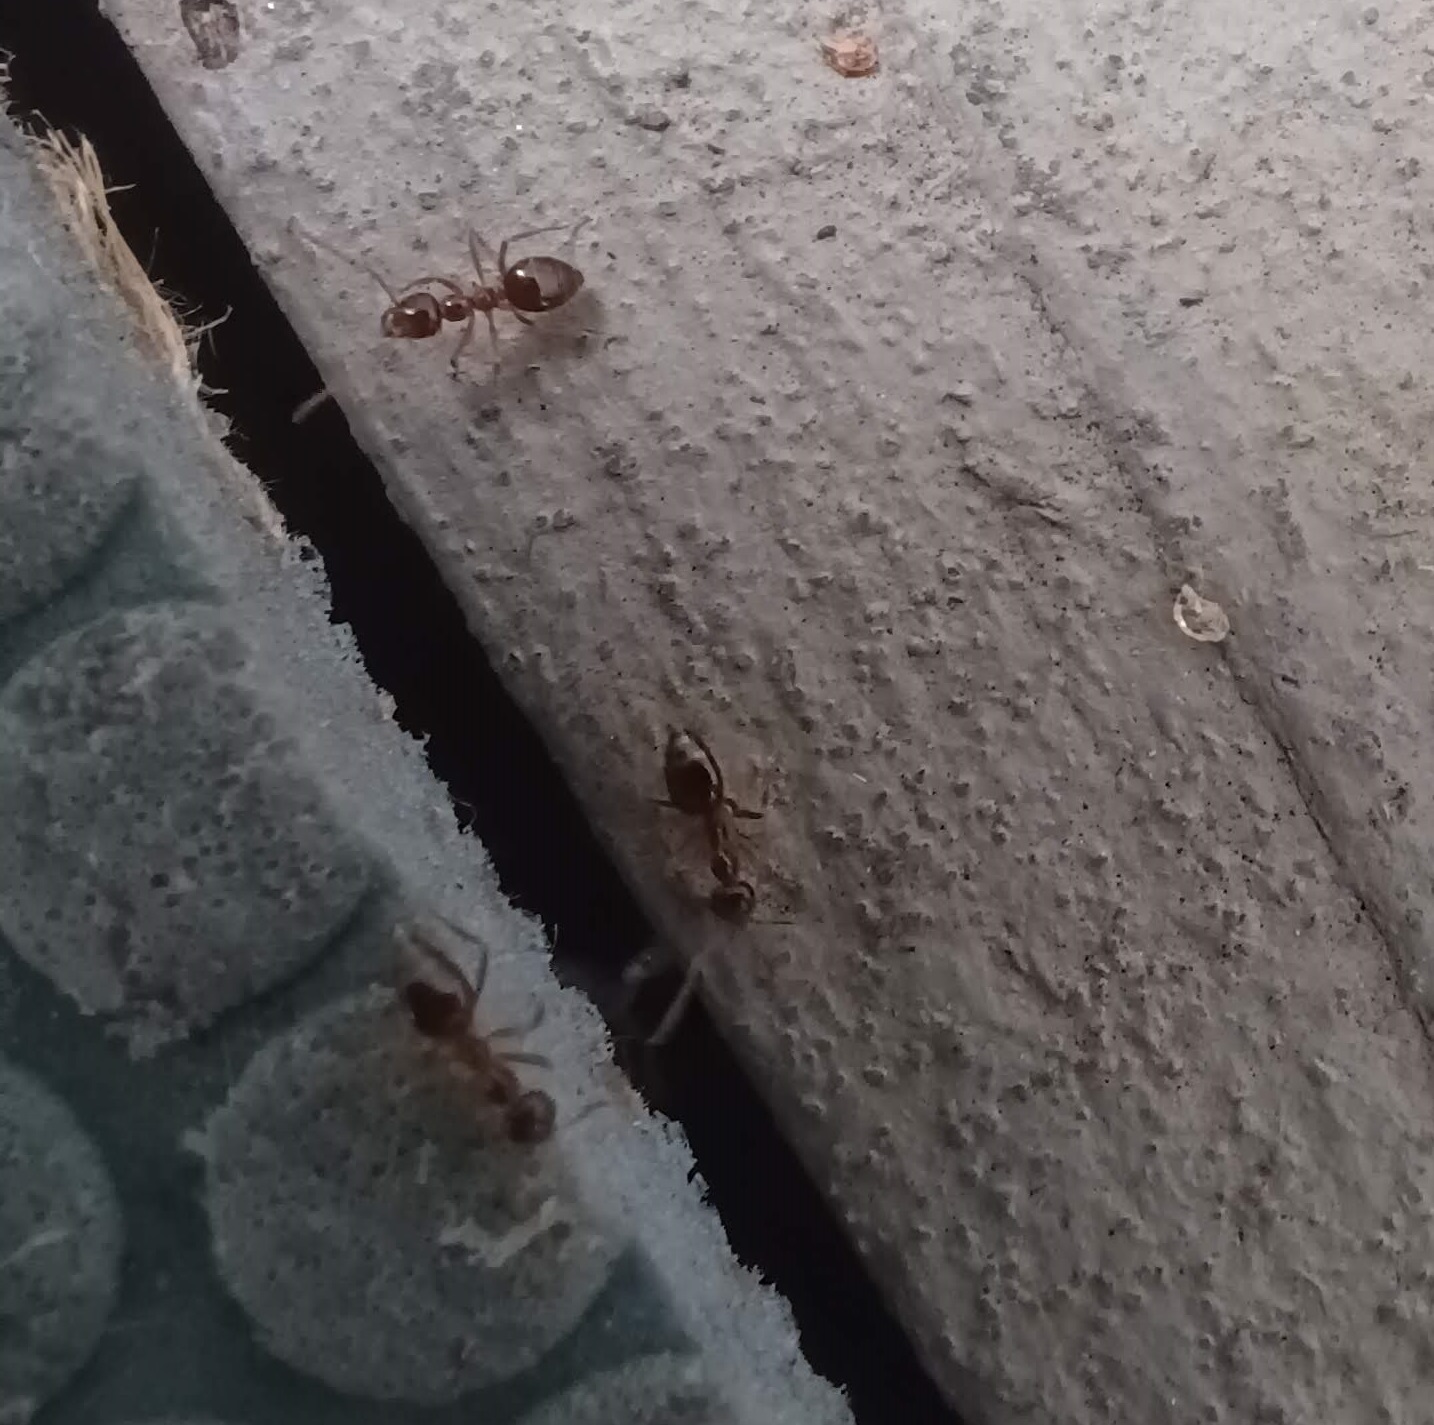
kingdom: Animalia
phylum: Arthropoda
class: Insecta
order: Hymenoptera
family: Formicidae
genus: Prenolepis
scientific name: Prenolepis imparis
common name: Small honey ant
